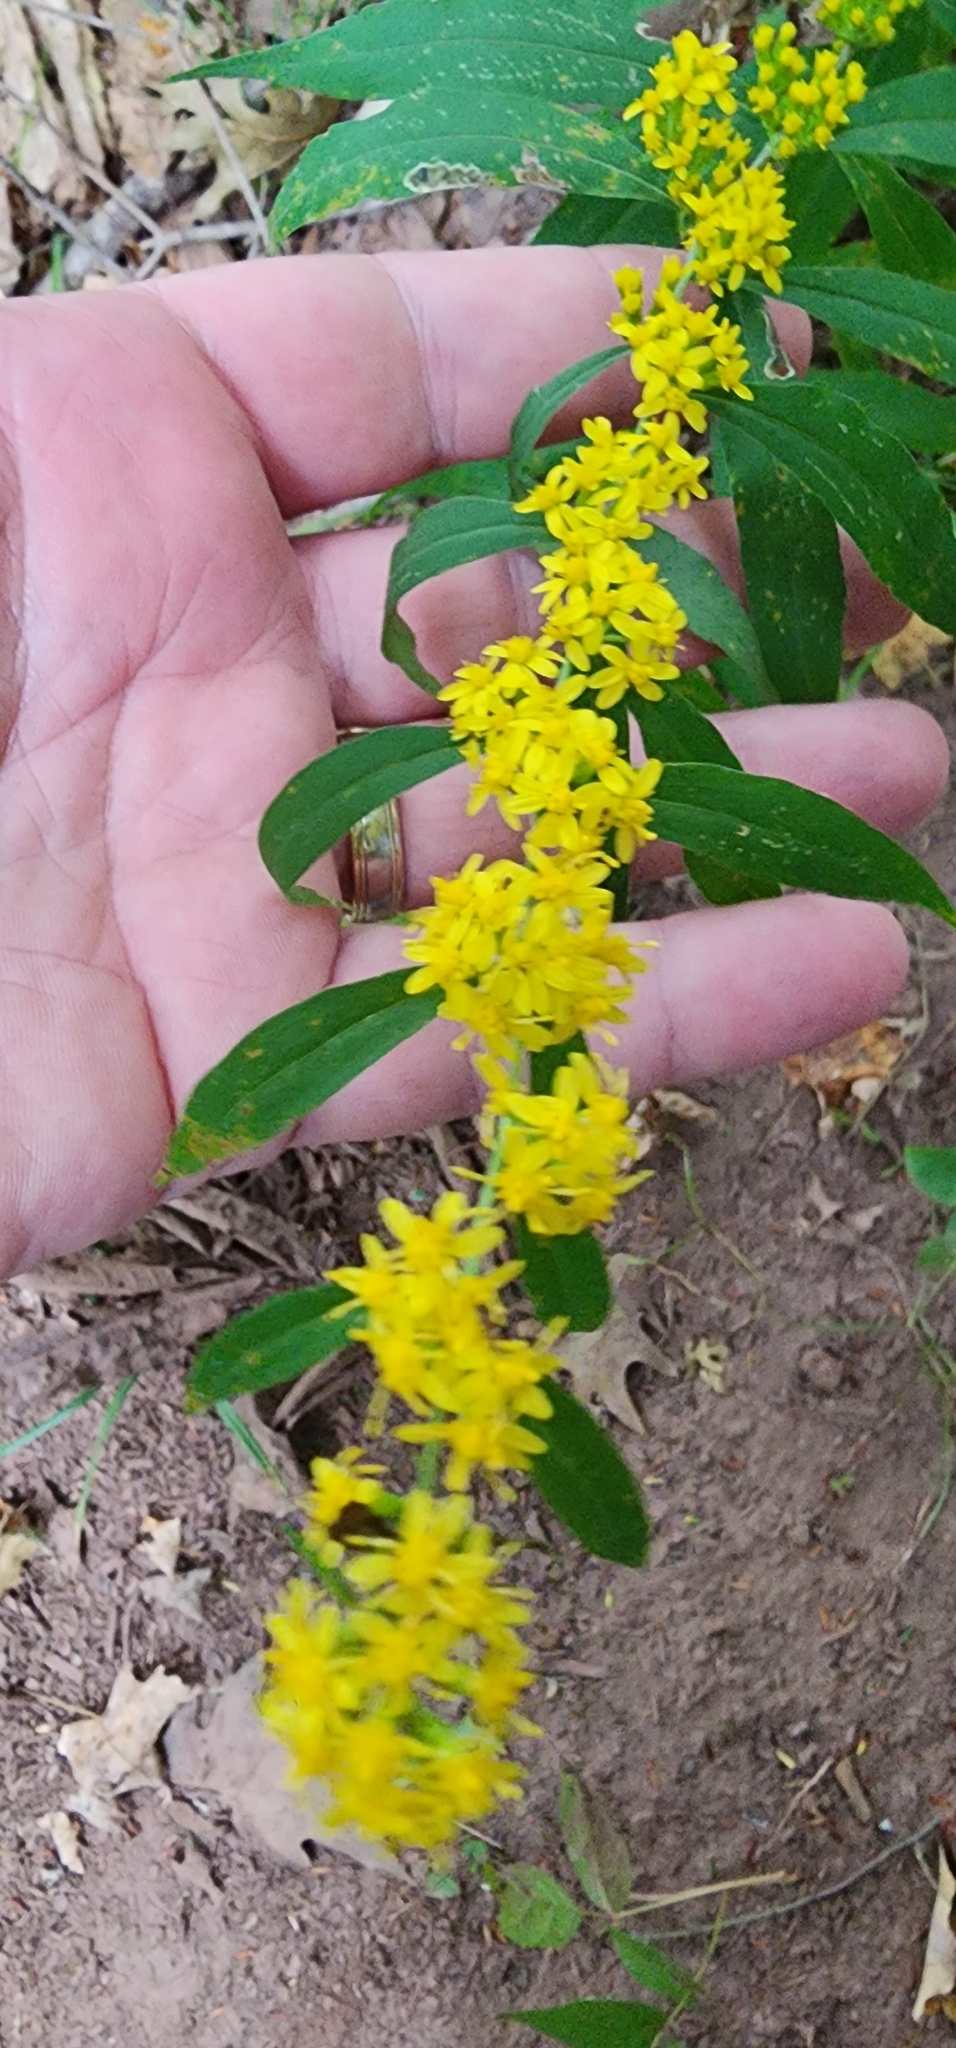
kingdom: Plantae
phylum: Tracheophyta
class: Magnoliopsida
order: Asterales
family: Asteraceae
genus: Solidago
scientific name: Solidago caesia
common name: Woodland goldenrod
